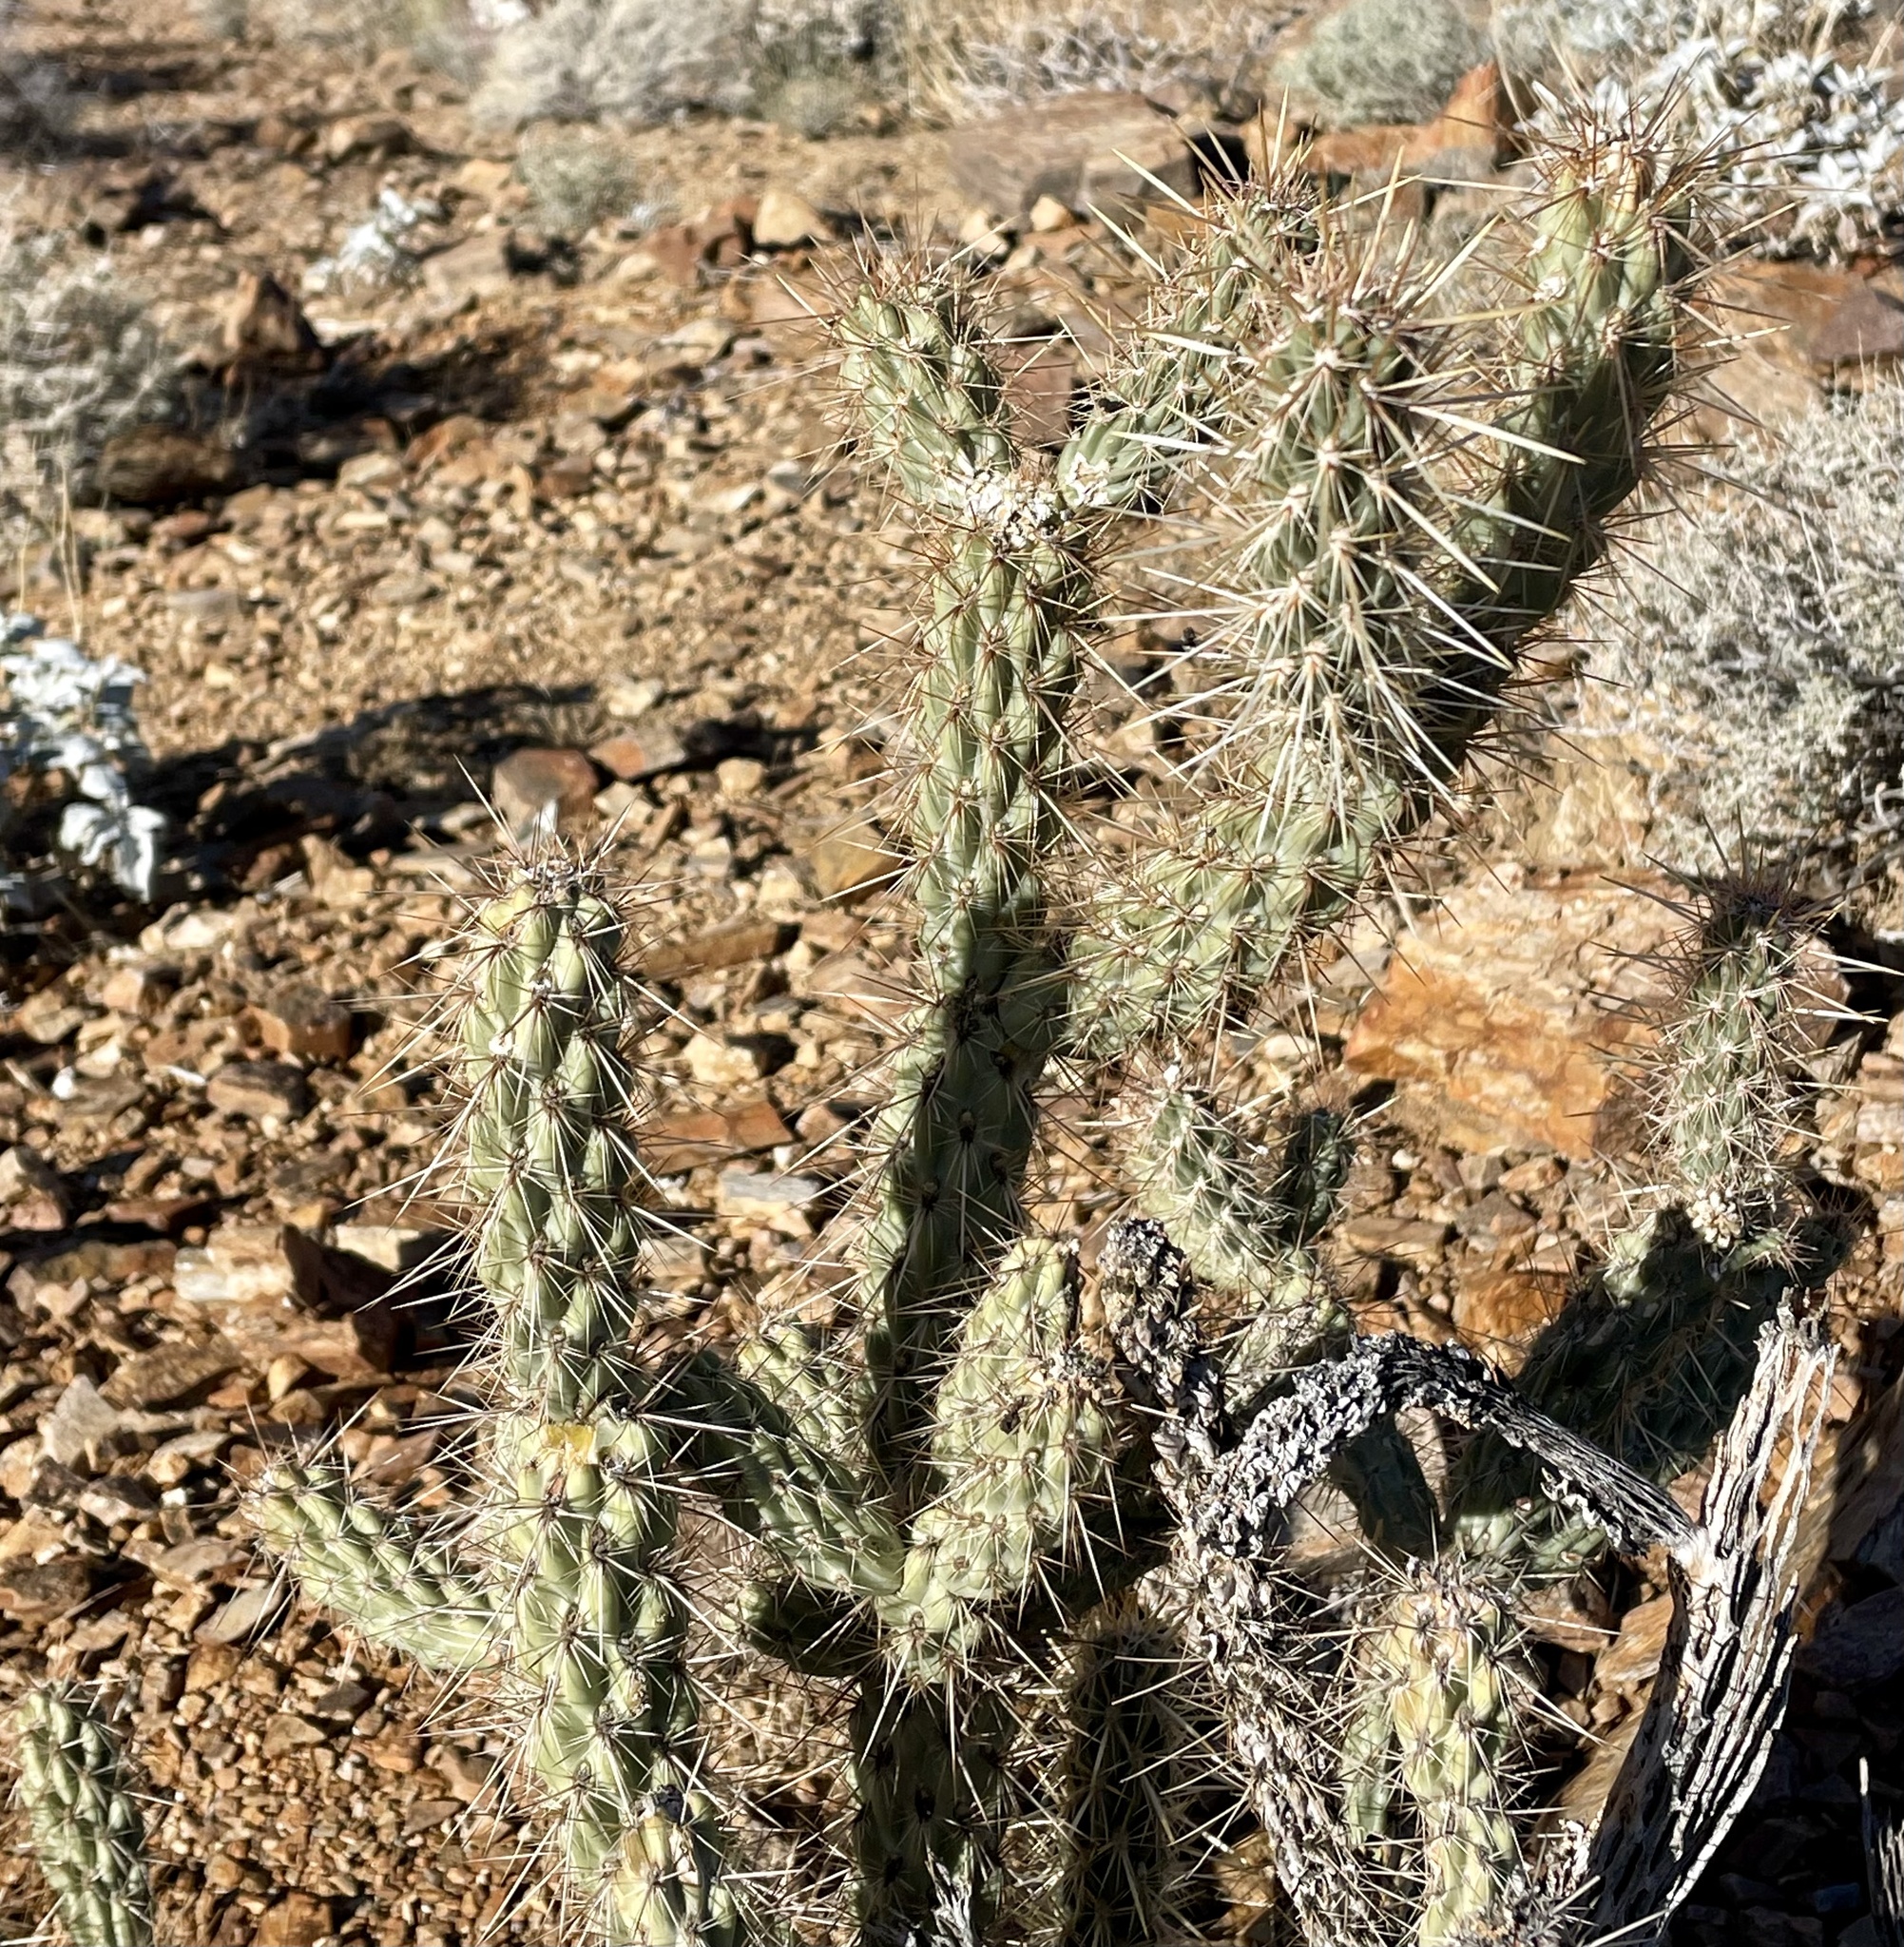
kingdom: Plantae
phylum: Tracheophyta
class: Magnoliopsida
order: Caryophyllales
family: Cactaceae
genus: Cylindropuntia
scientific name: Cylindropuntia ganderi
